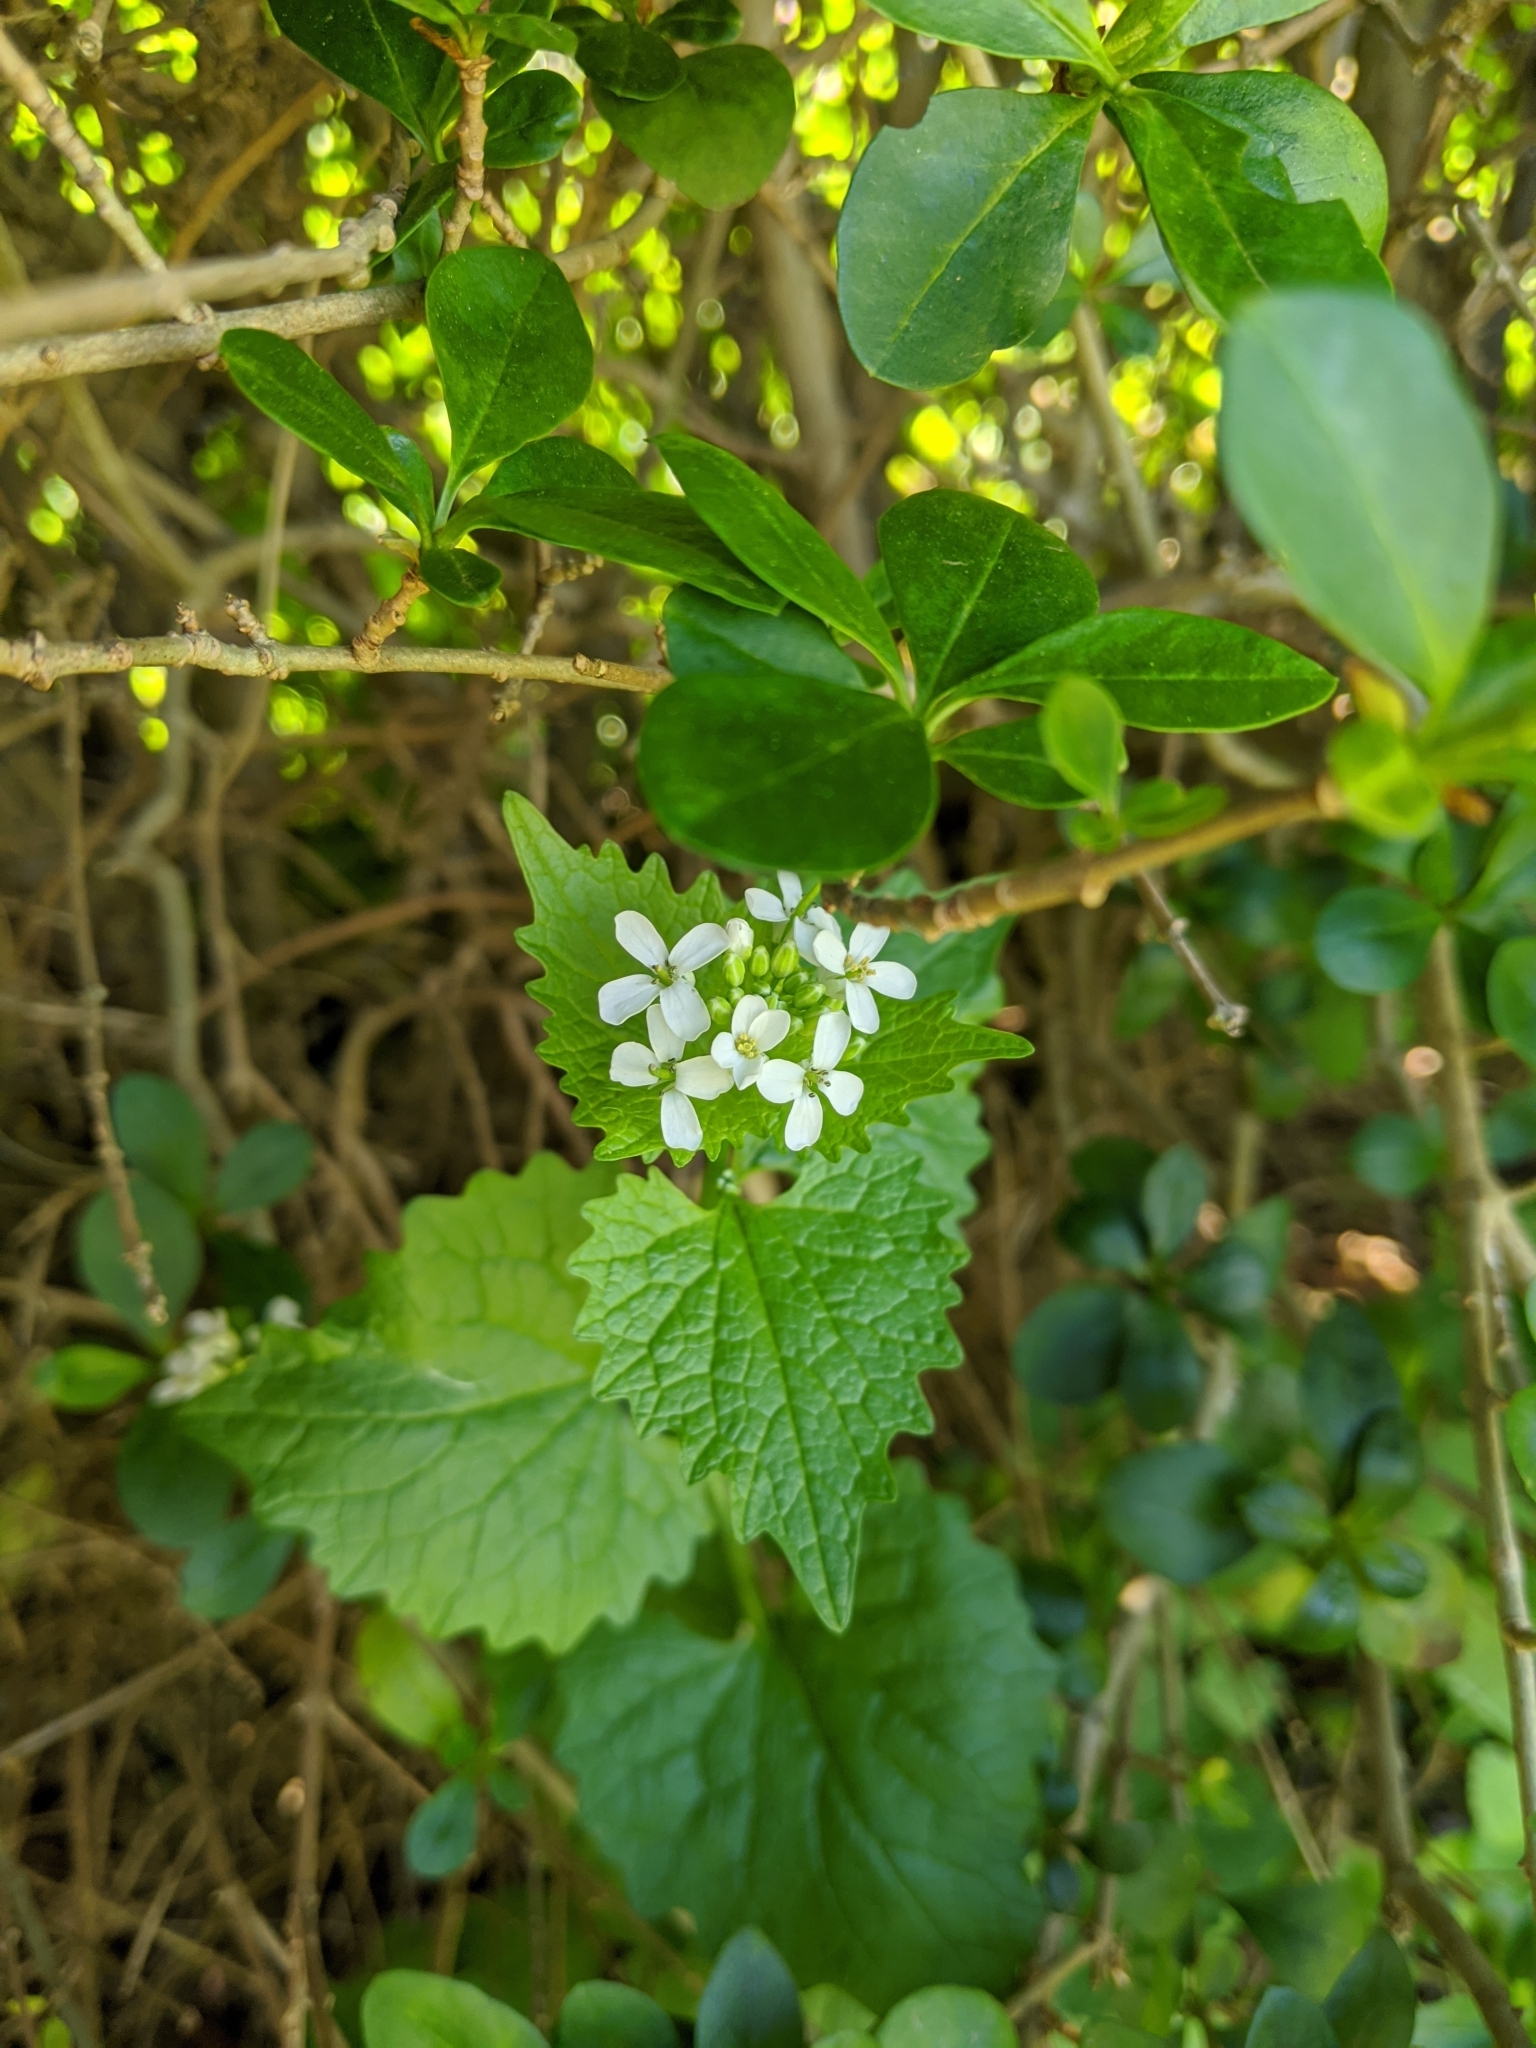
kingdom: Plantae
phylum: Tracheophyta
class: Magnoliopsida
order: Brassicales
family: Brassicaceae
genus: Alliaria
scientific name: Alliaria petiolata
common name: Garlic mustard
